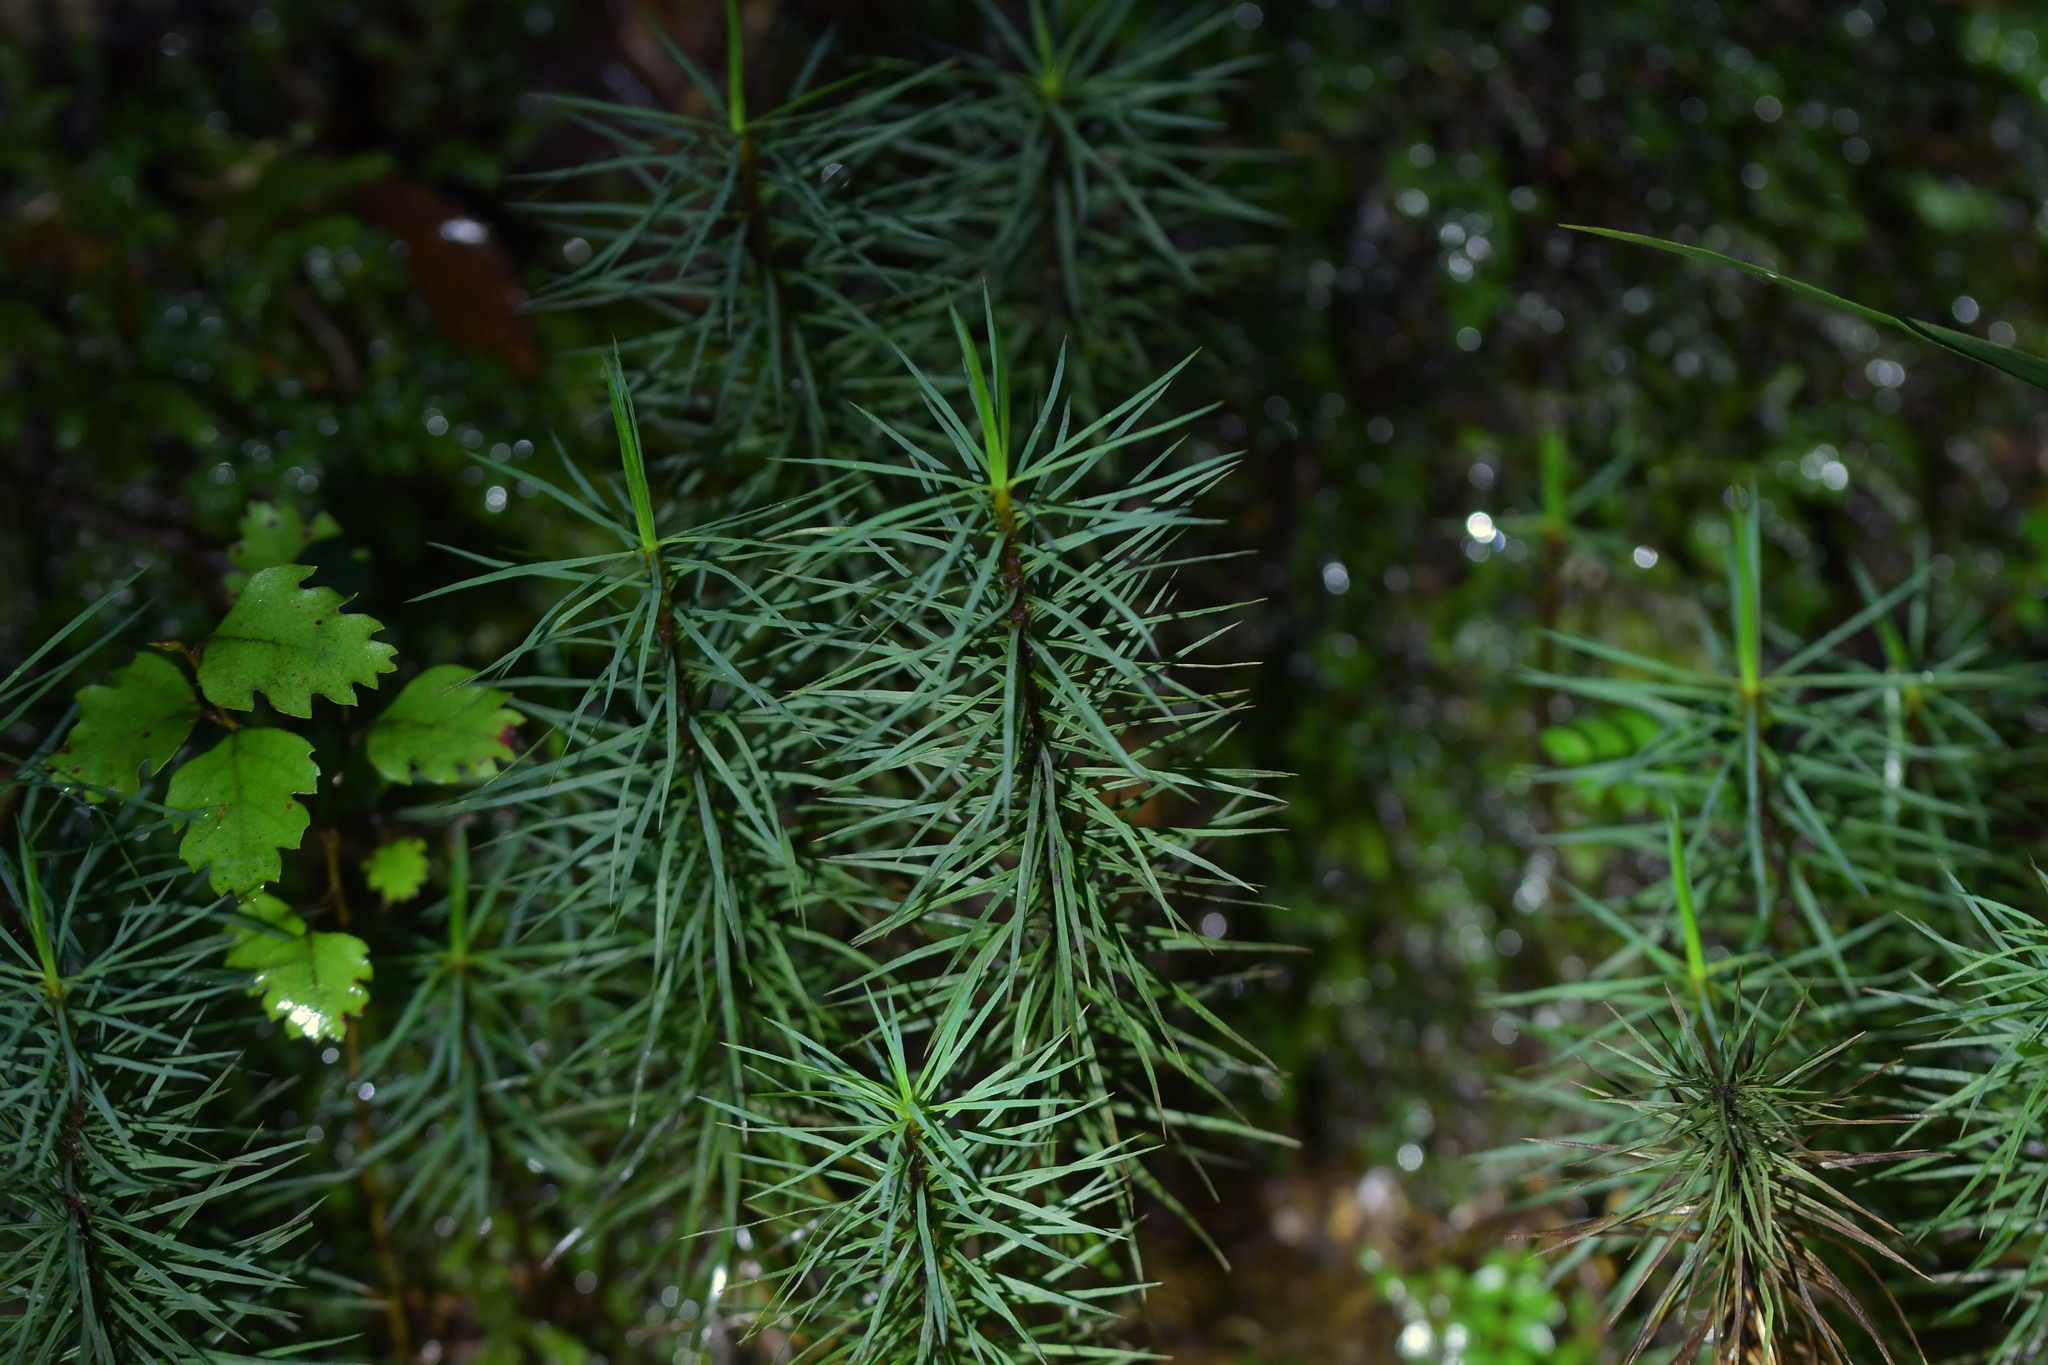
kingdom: Plantae
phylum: Bryophyta
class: Polytrichopsida
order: Polytrichales
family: Polytrichaceae
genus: Dawsonia
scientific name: Dawsonia superba
